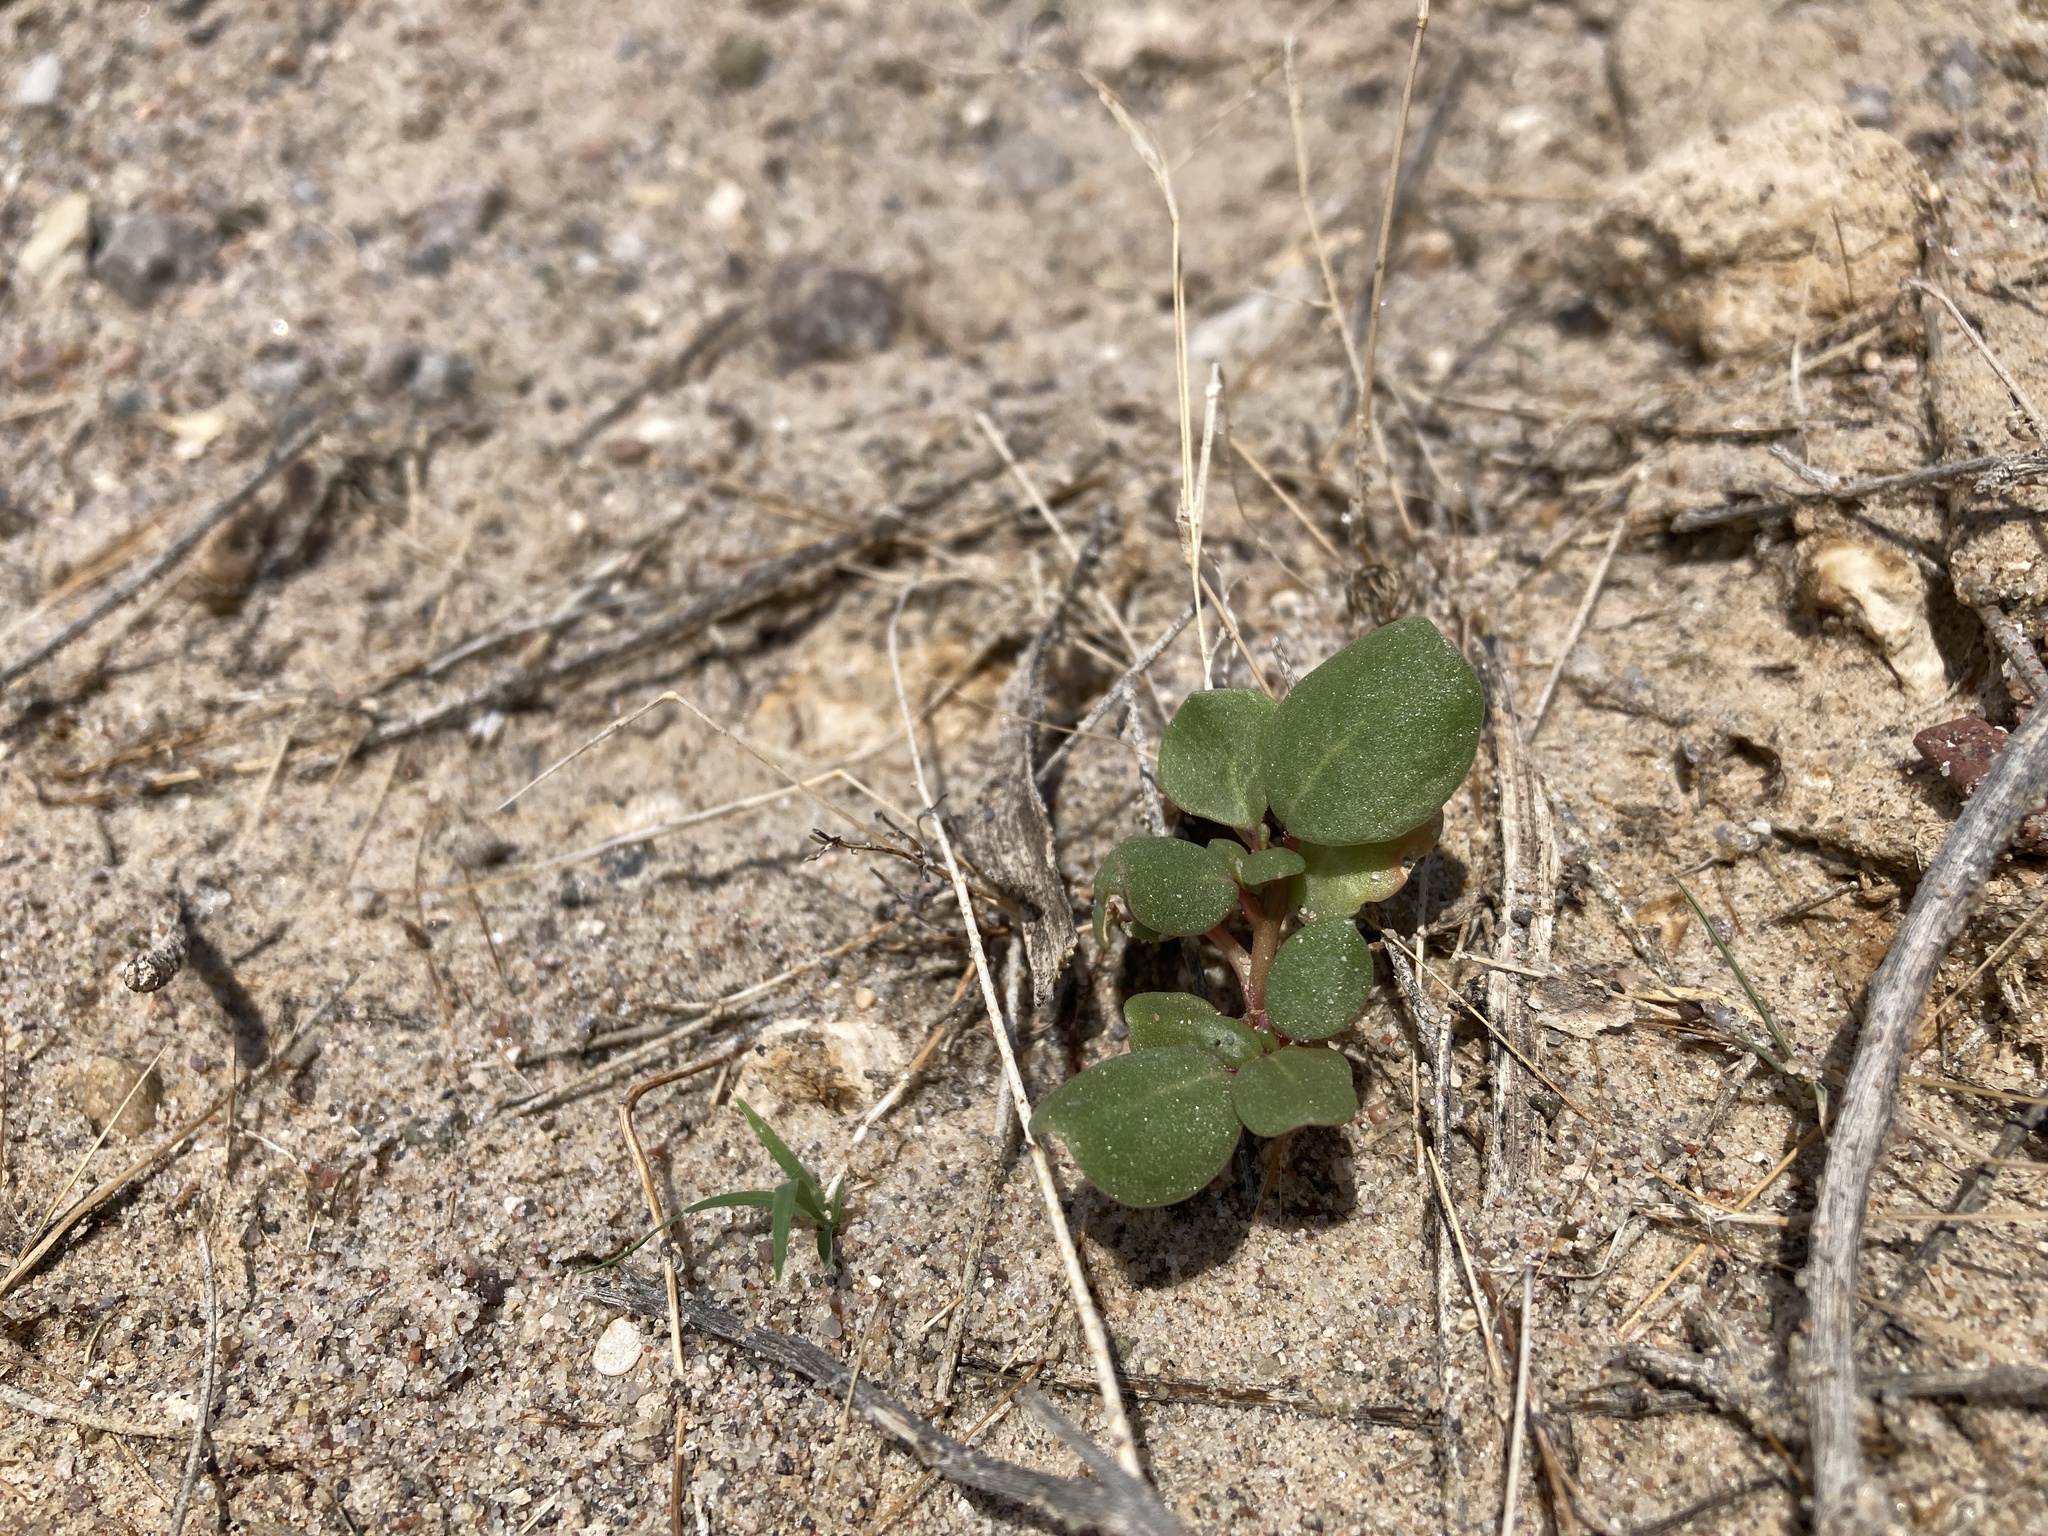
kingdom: Plantae
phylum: Tracheophyta
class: Magnoliopsida
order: Caryophyllales
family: Aizoaceae
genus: Trianthema
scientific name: Trianthema portulacastrum
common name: Desert horsepurslane
